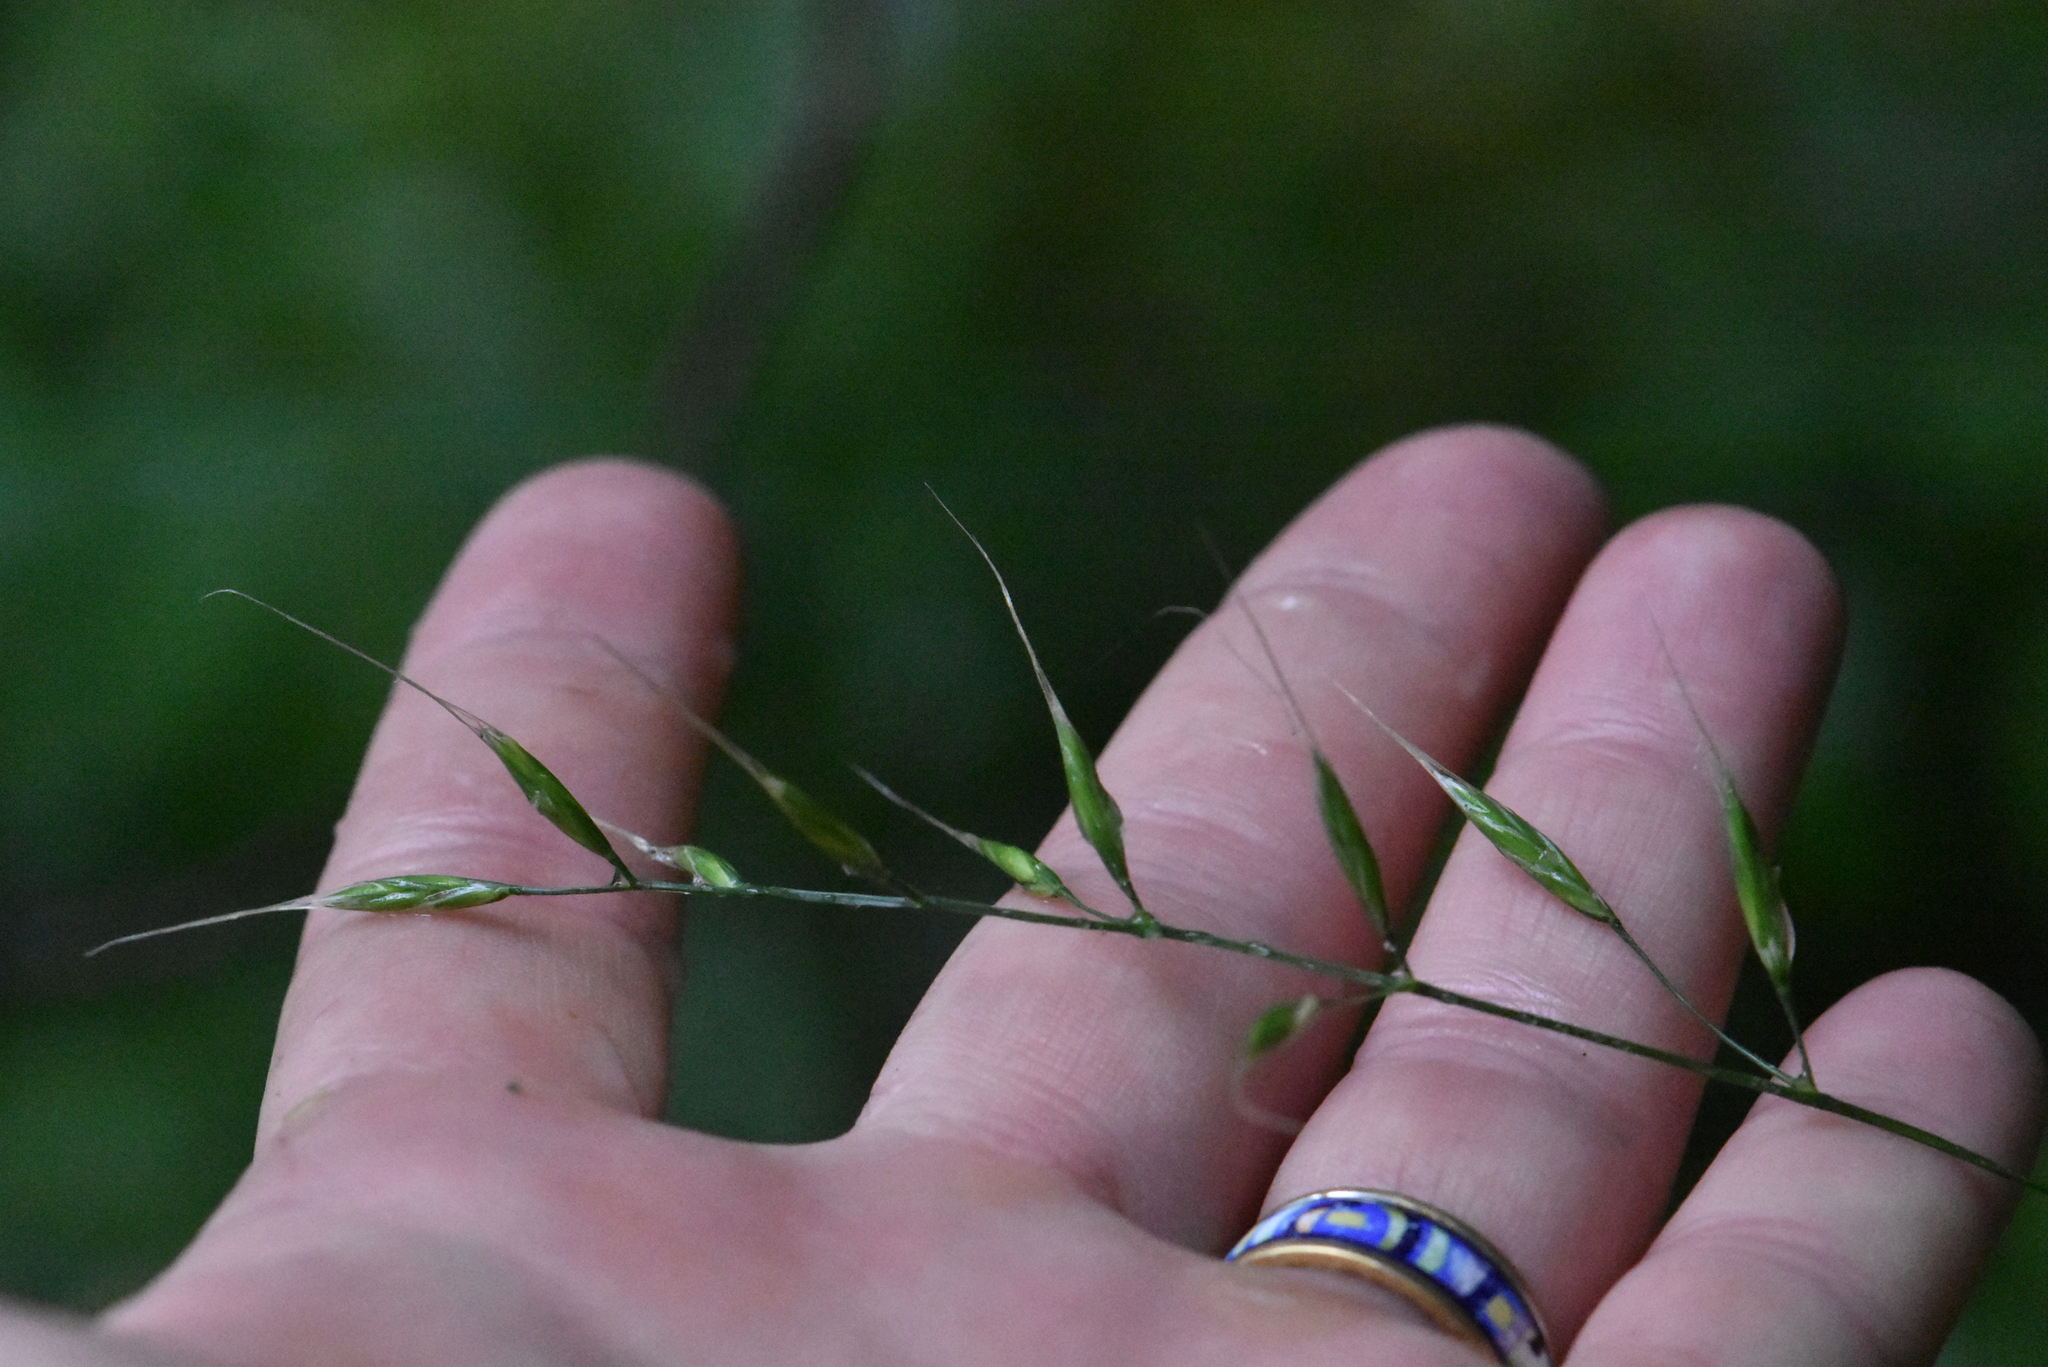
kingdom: Plantae
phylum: Tracheophyta
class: Liliopsida
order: Poales
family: Poaceae
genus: Lolium
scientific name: Lolium giganteum
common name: Giant fescue
